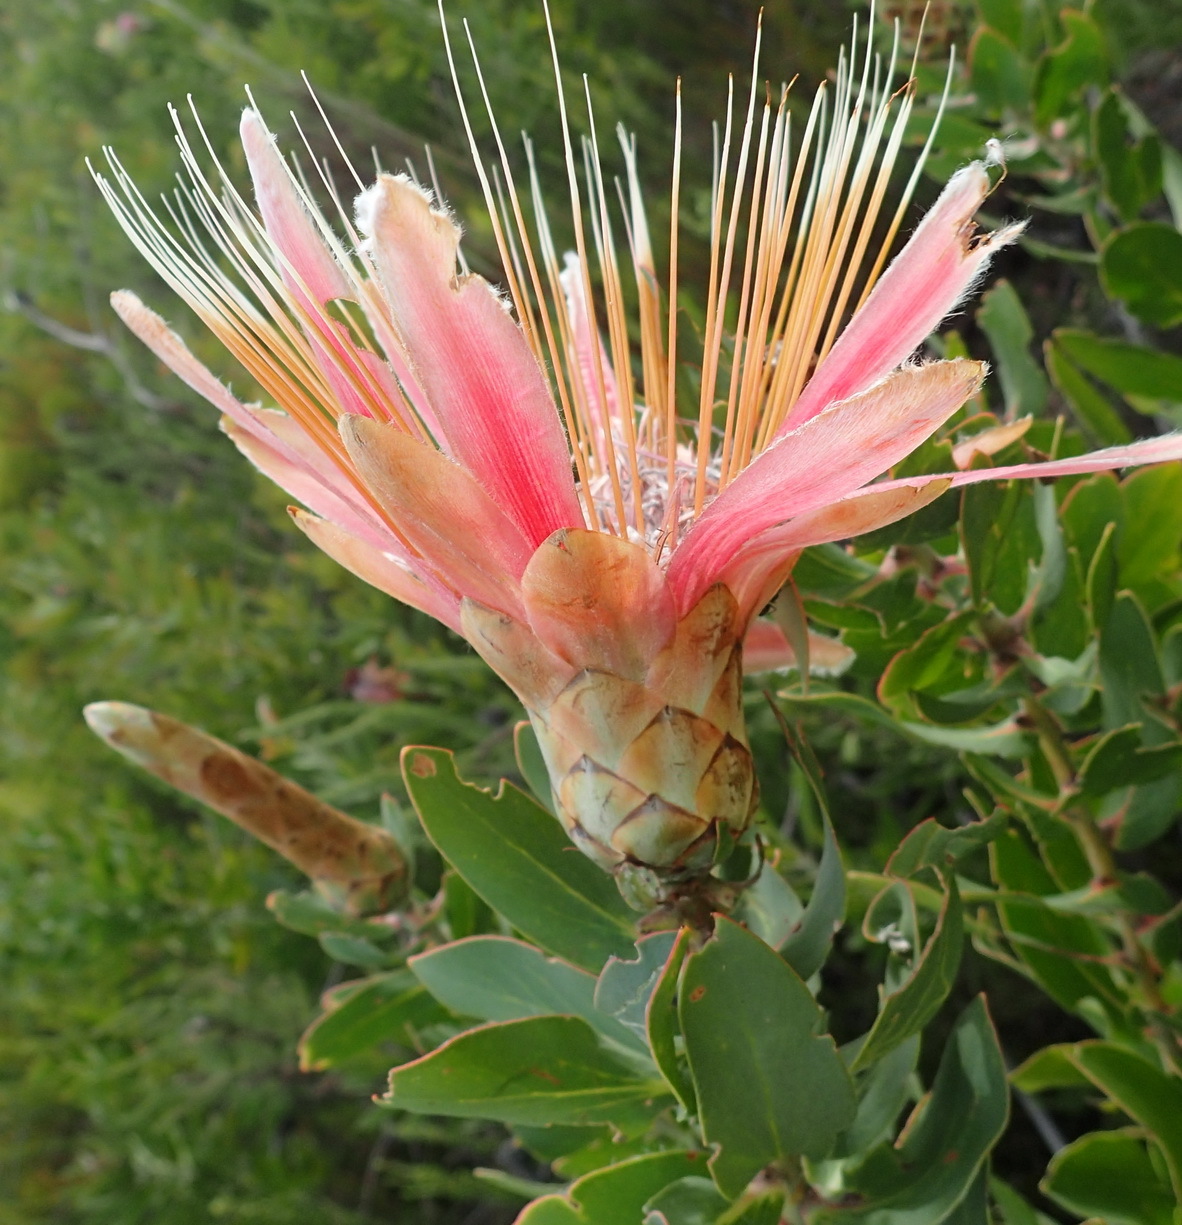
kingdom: Plantae
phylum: Tracheophyta
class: Magnoliopsida
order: Proteales
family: Proteaceae
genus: Protea
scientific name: Protea aurea
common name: Shuttlecock sugarbush
